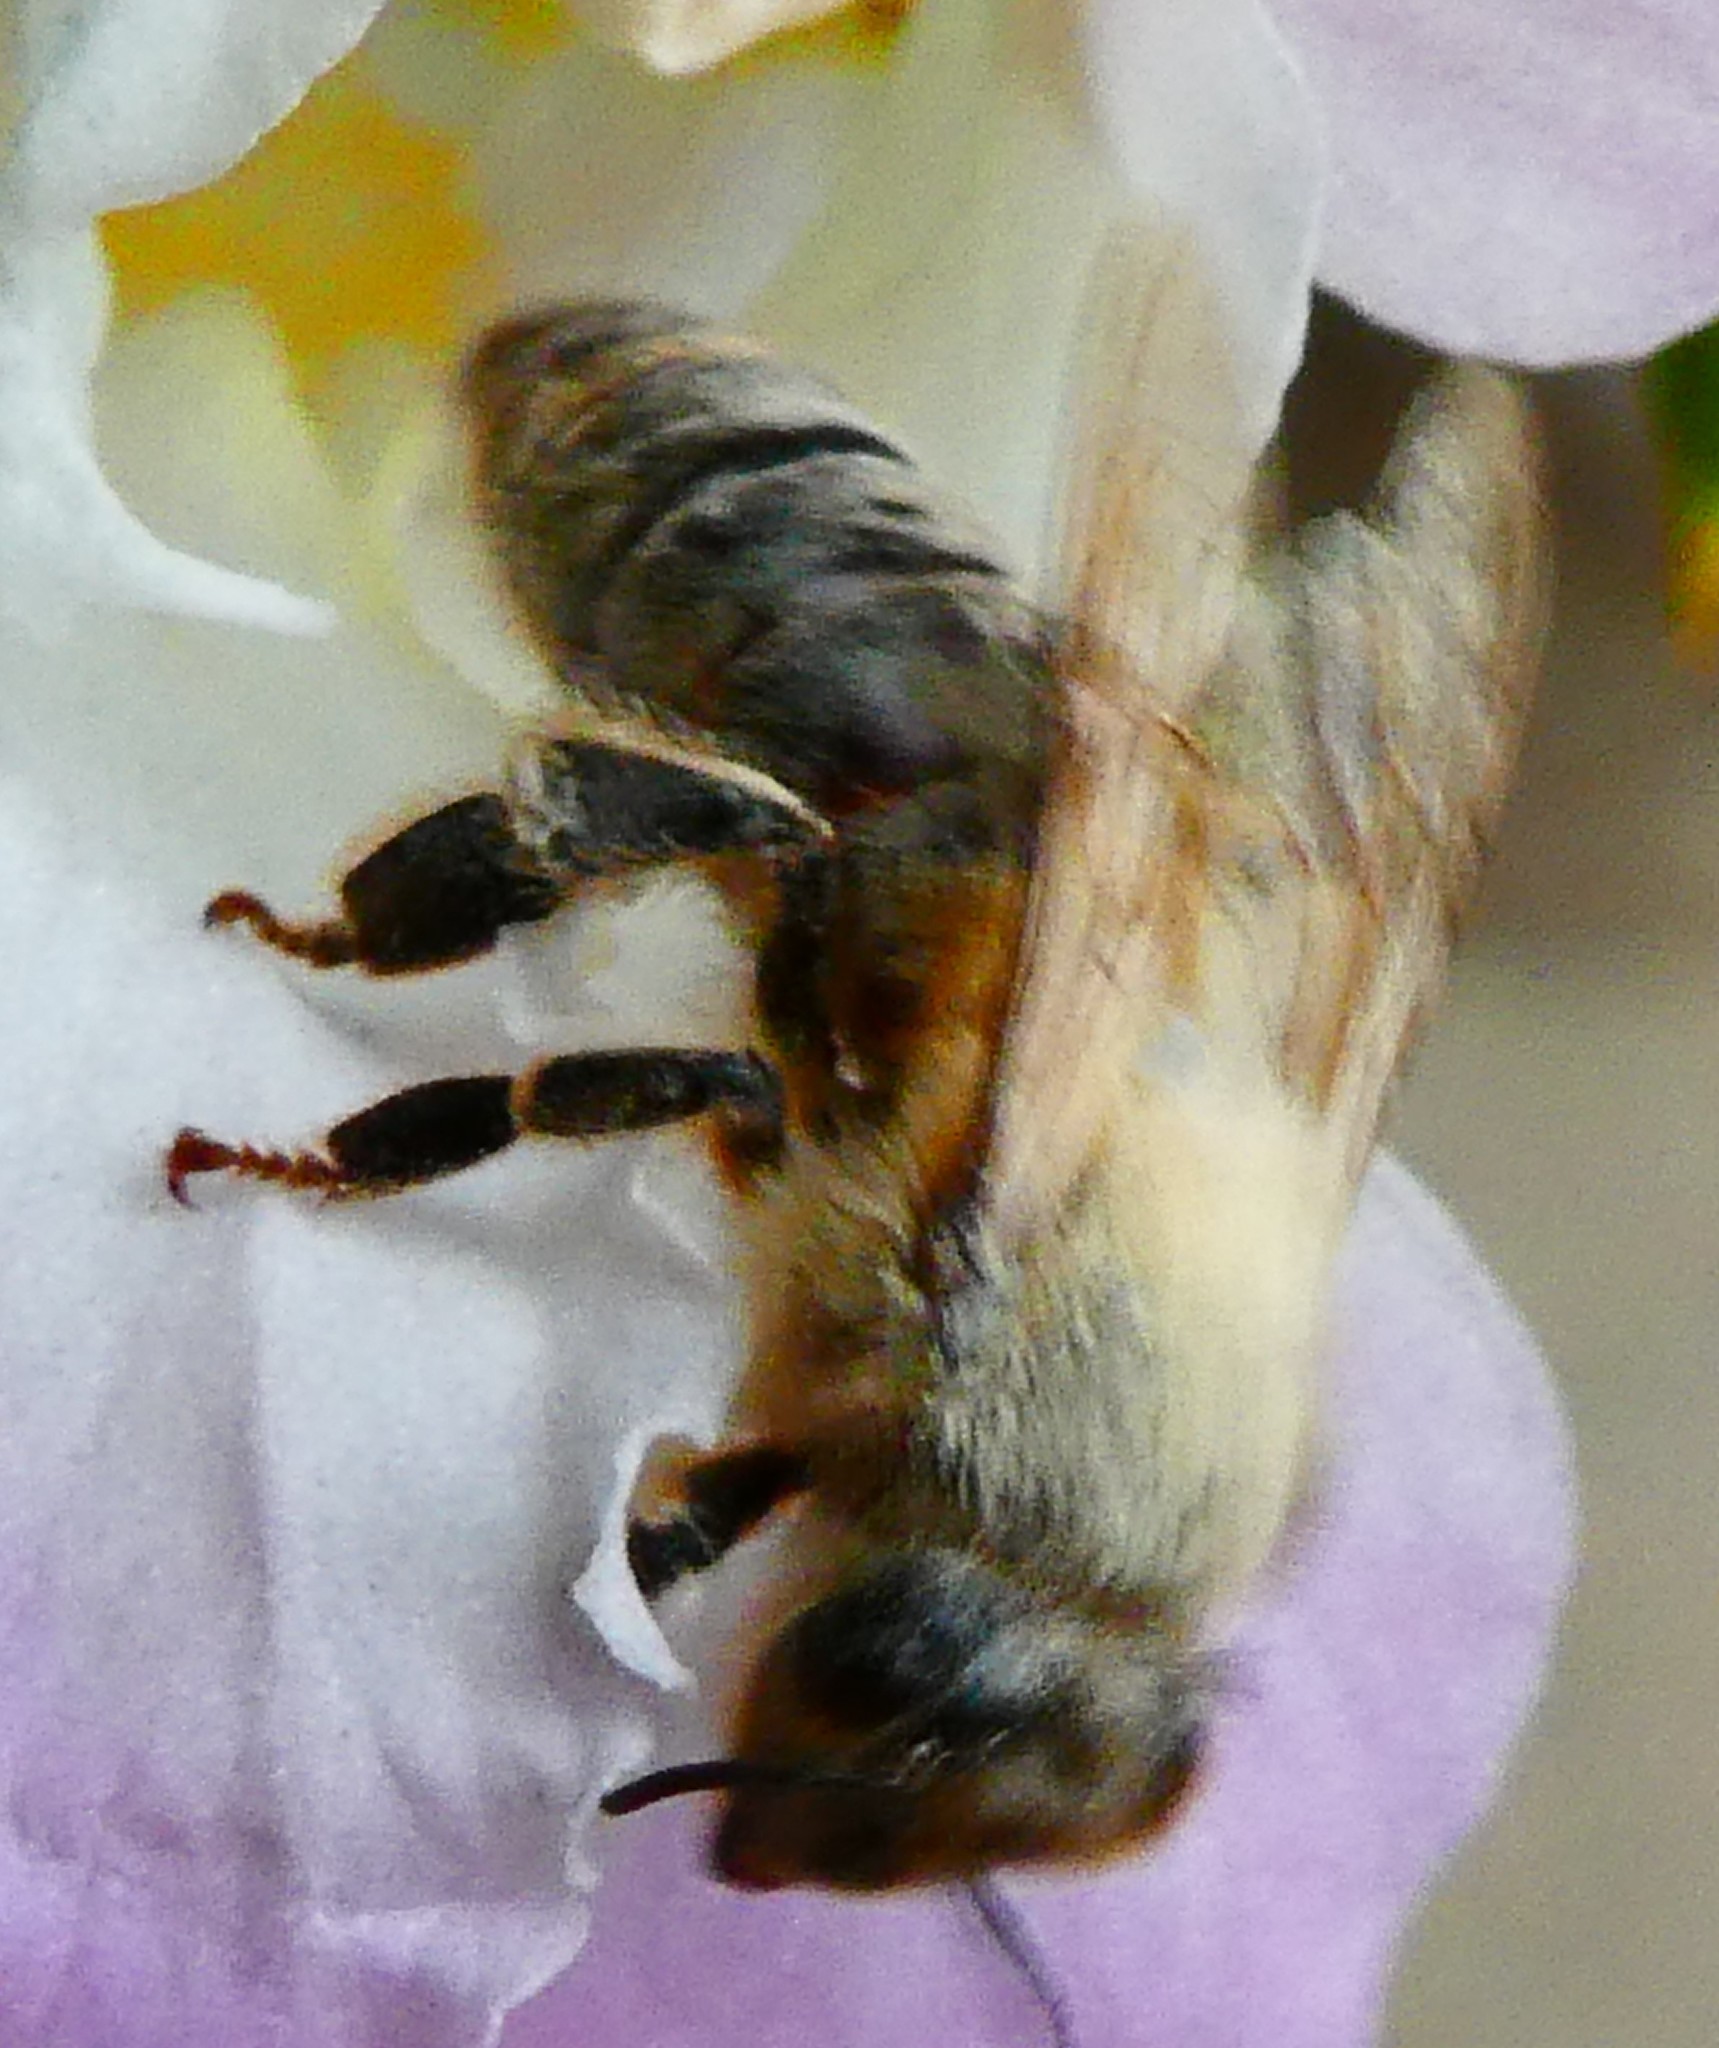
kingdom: Animalia
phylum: Arthropoda
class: Insecta
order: Hymenoptera
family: Apidae
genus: Apis
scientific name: Apis mellifera
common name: Honey bee
